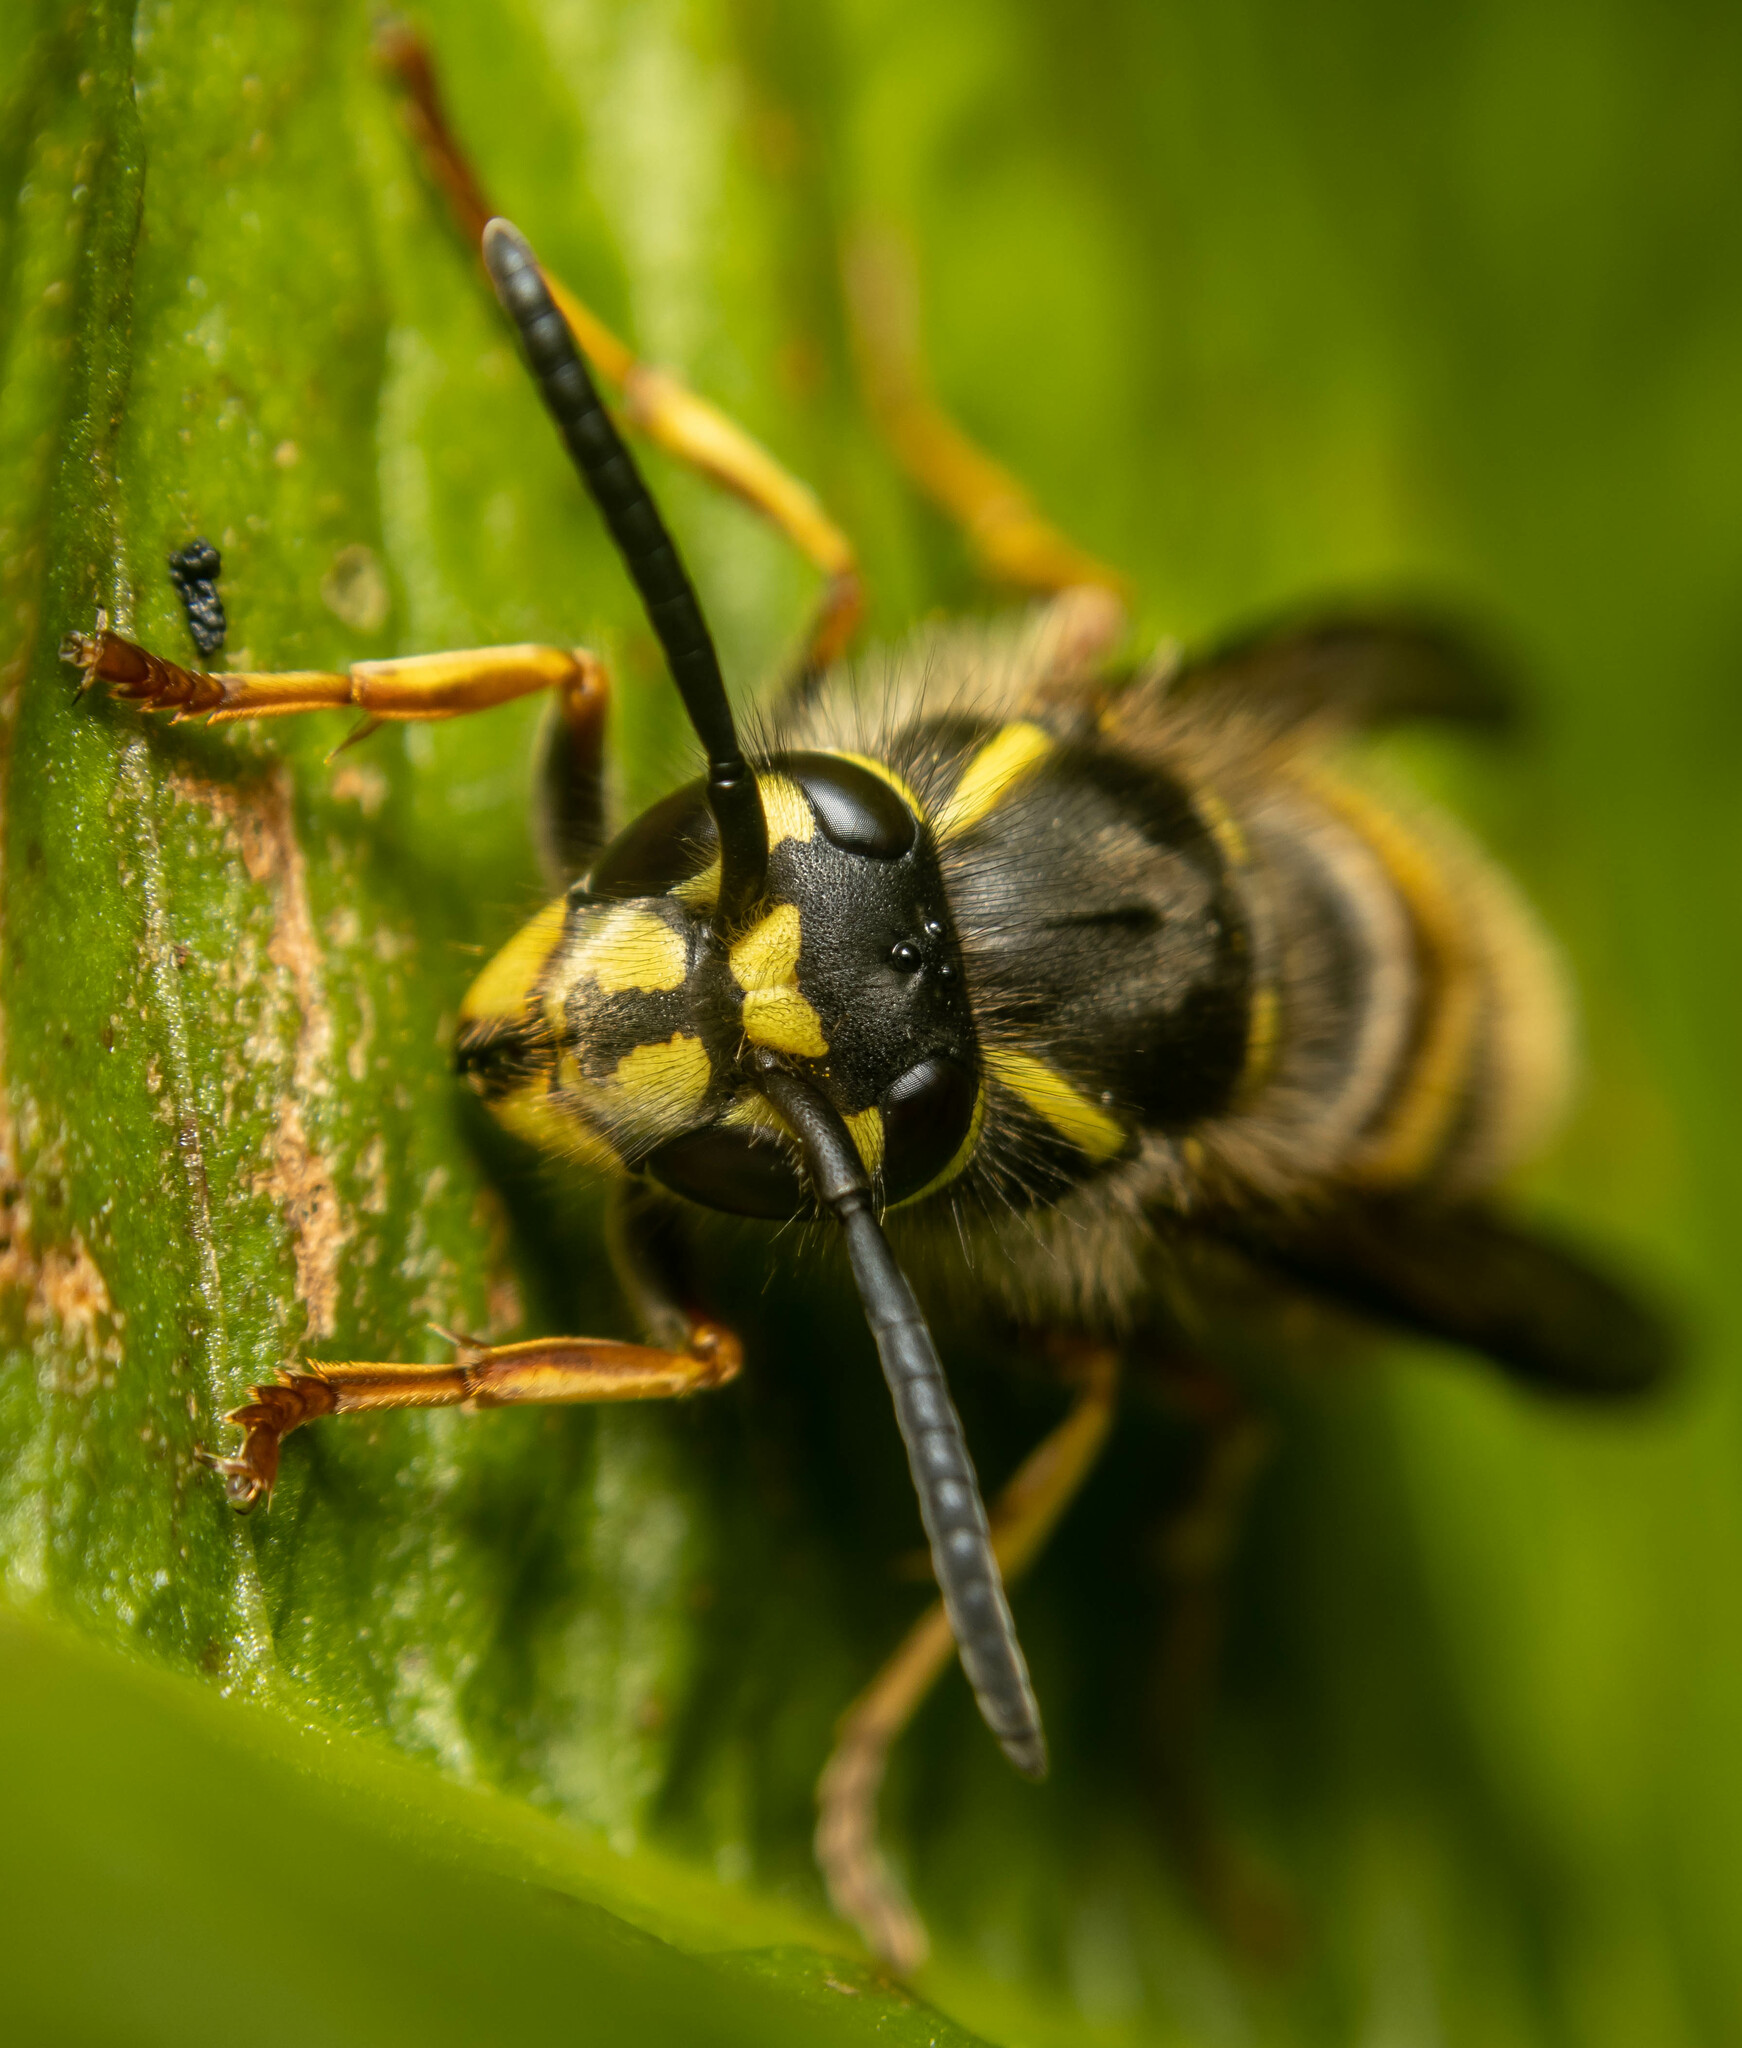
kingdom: Animalia
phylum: Arthropoda
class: Insecta
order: Hymenoptera
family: Vespidae
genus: Vespula
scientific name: Vespula vulgaris
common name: Common wasp
